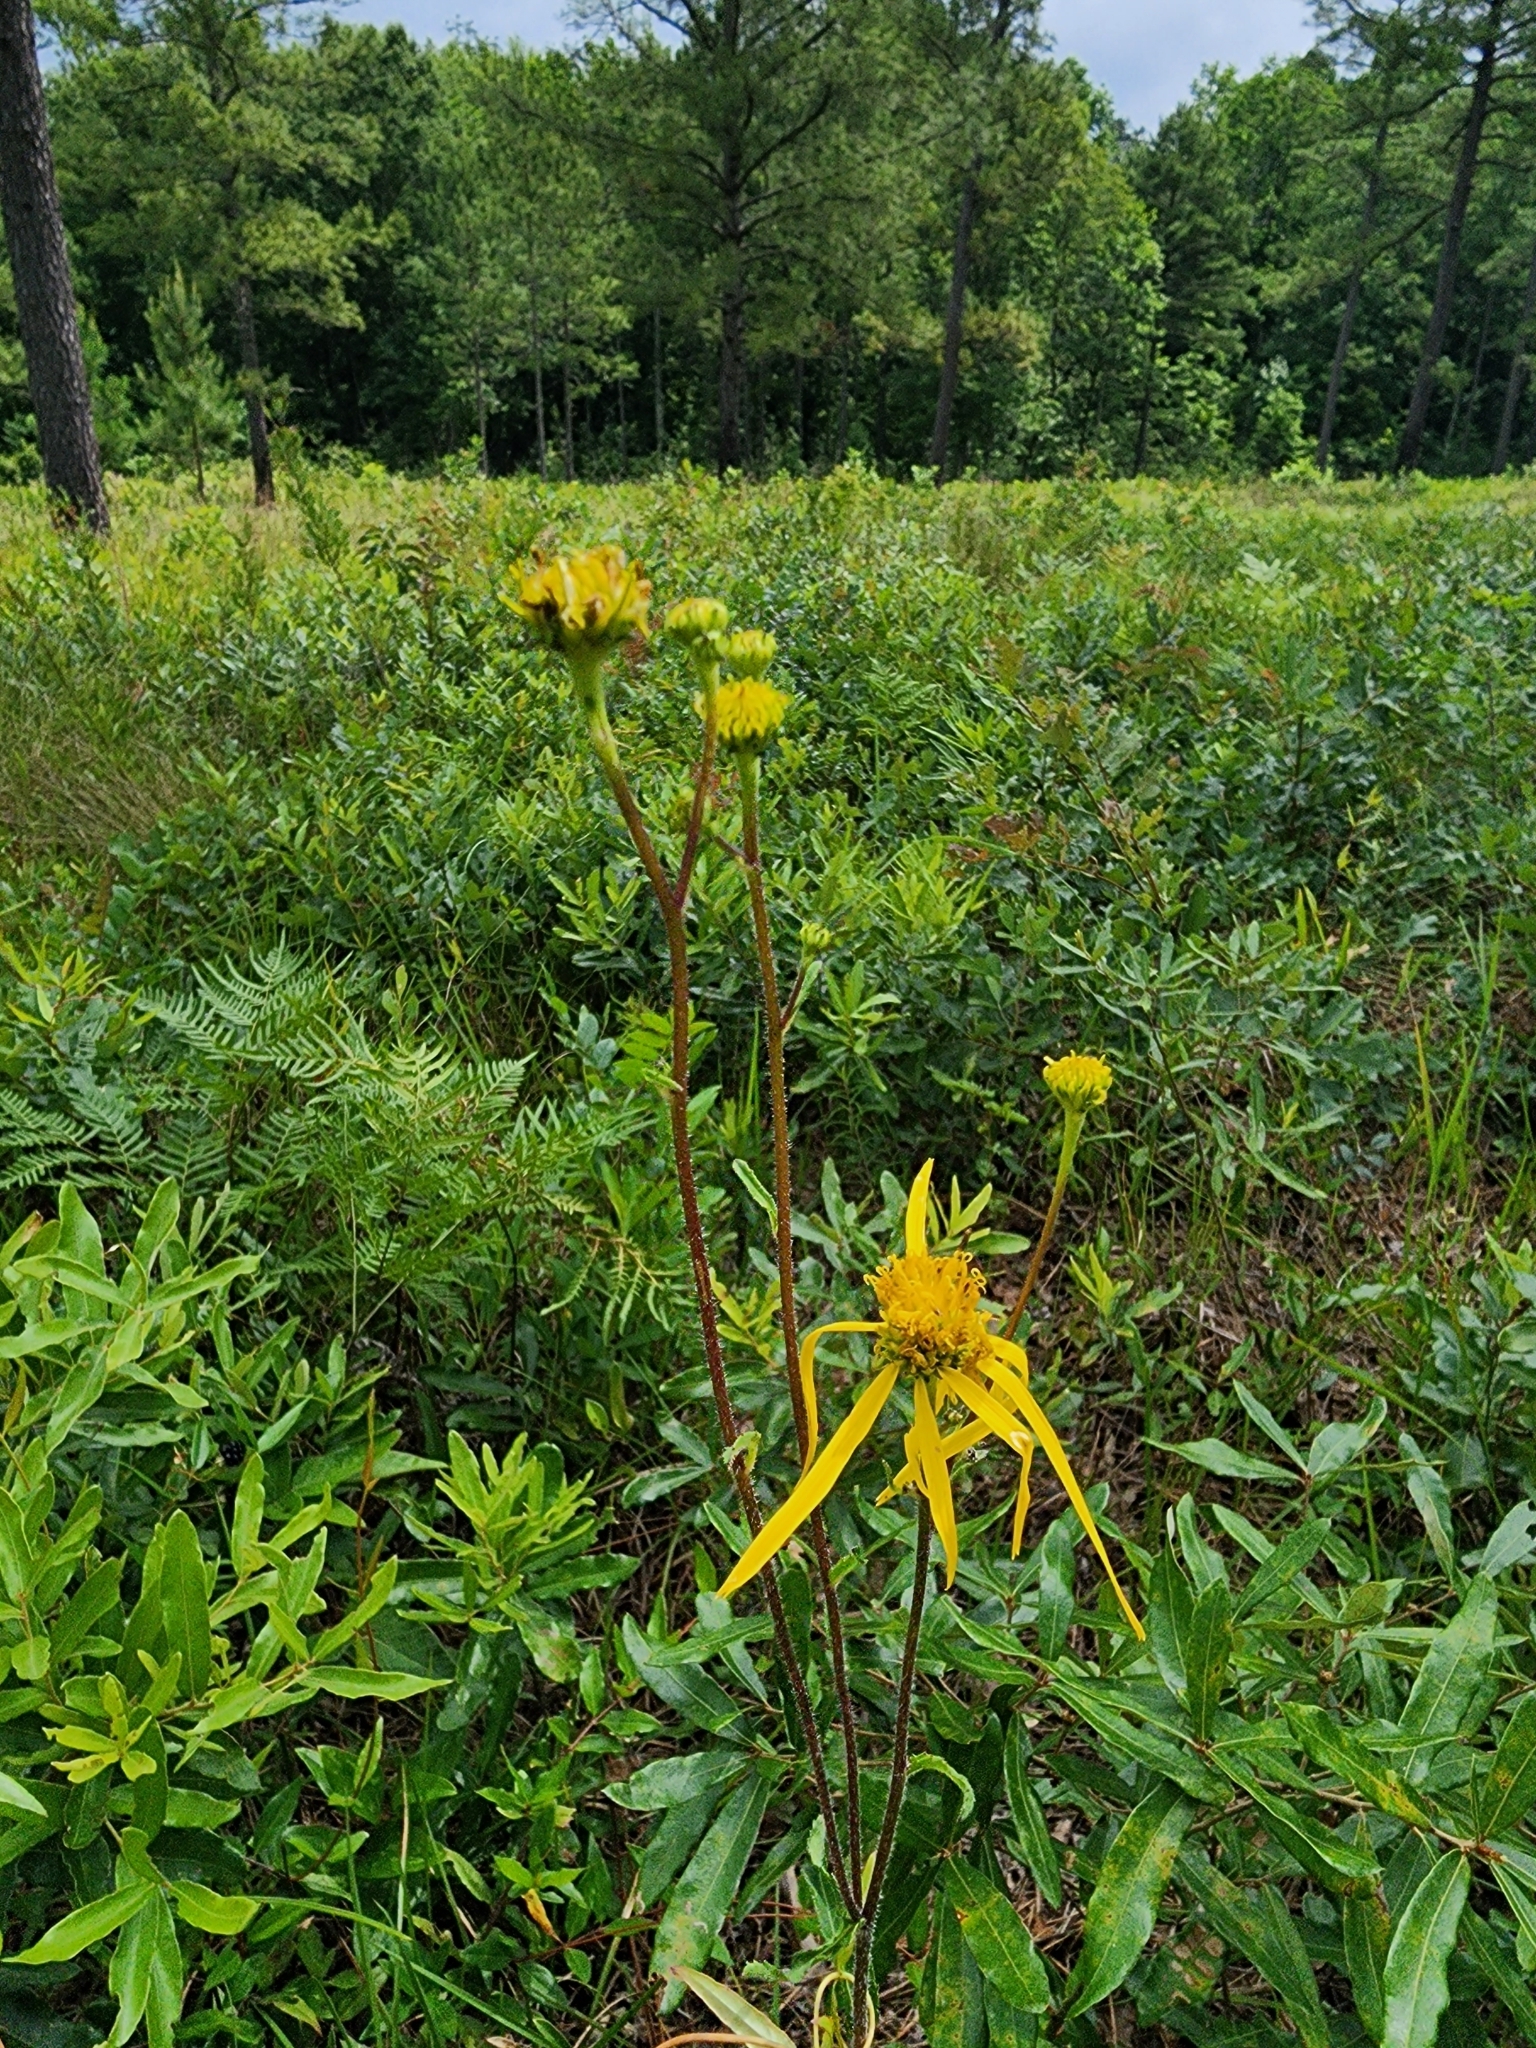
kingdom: Plantae
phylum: Tracheophyta
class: Magnoliopsida
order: Asterales
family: Asteraceae
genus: Verbesina
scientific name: Verbesina aristata
